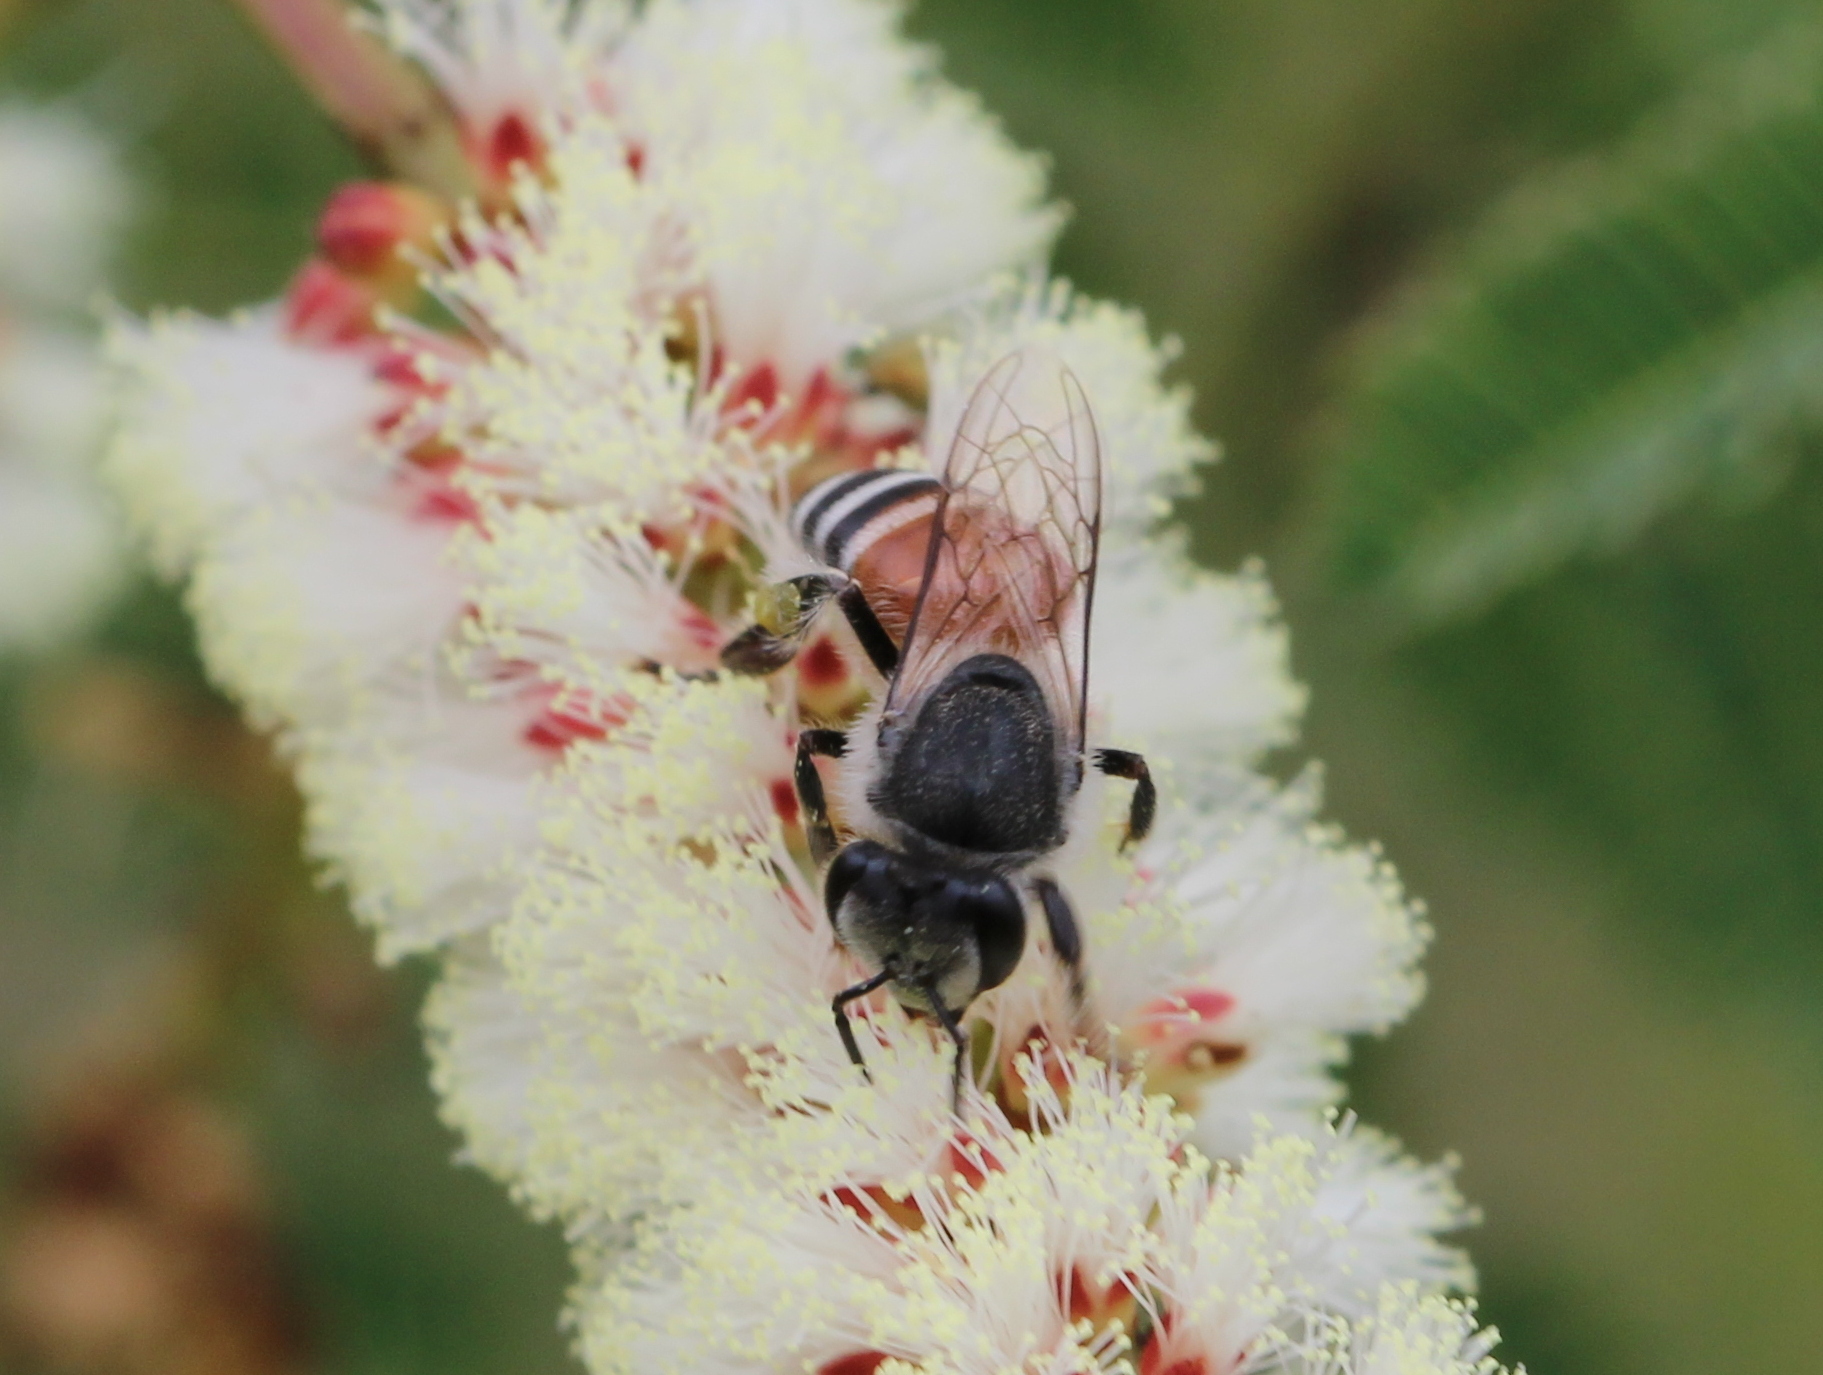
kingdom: Animalia
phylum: Arthropoda
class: Insecta
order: Hymenoptera
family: Apidae
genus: Apis
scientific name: Apis florea
